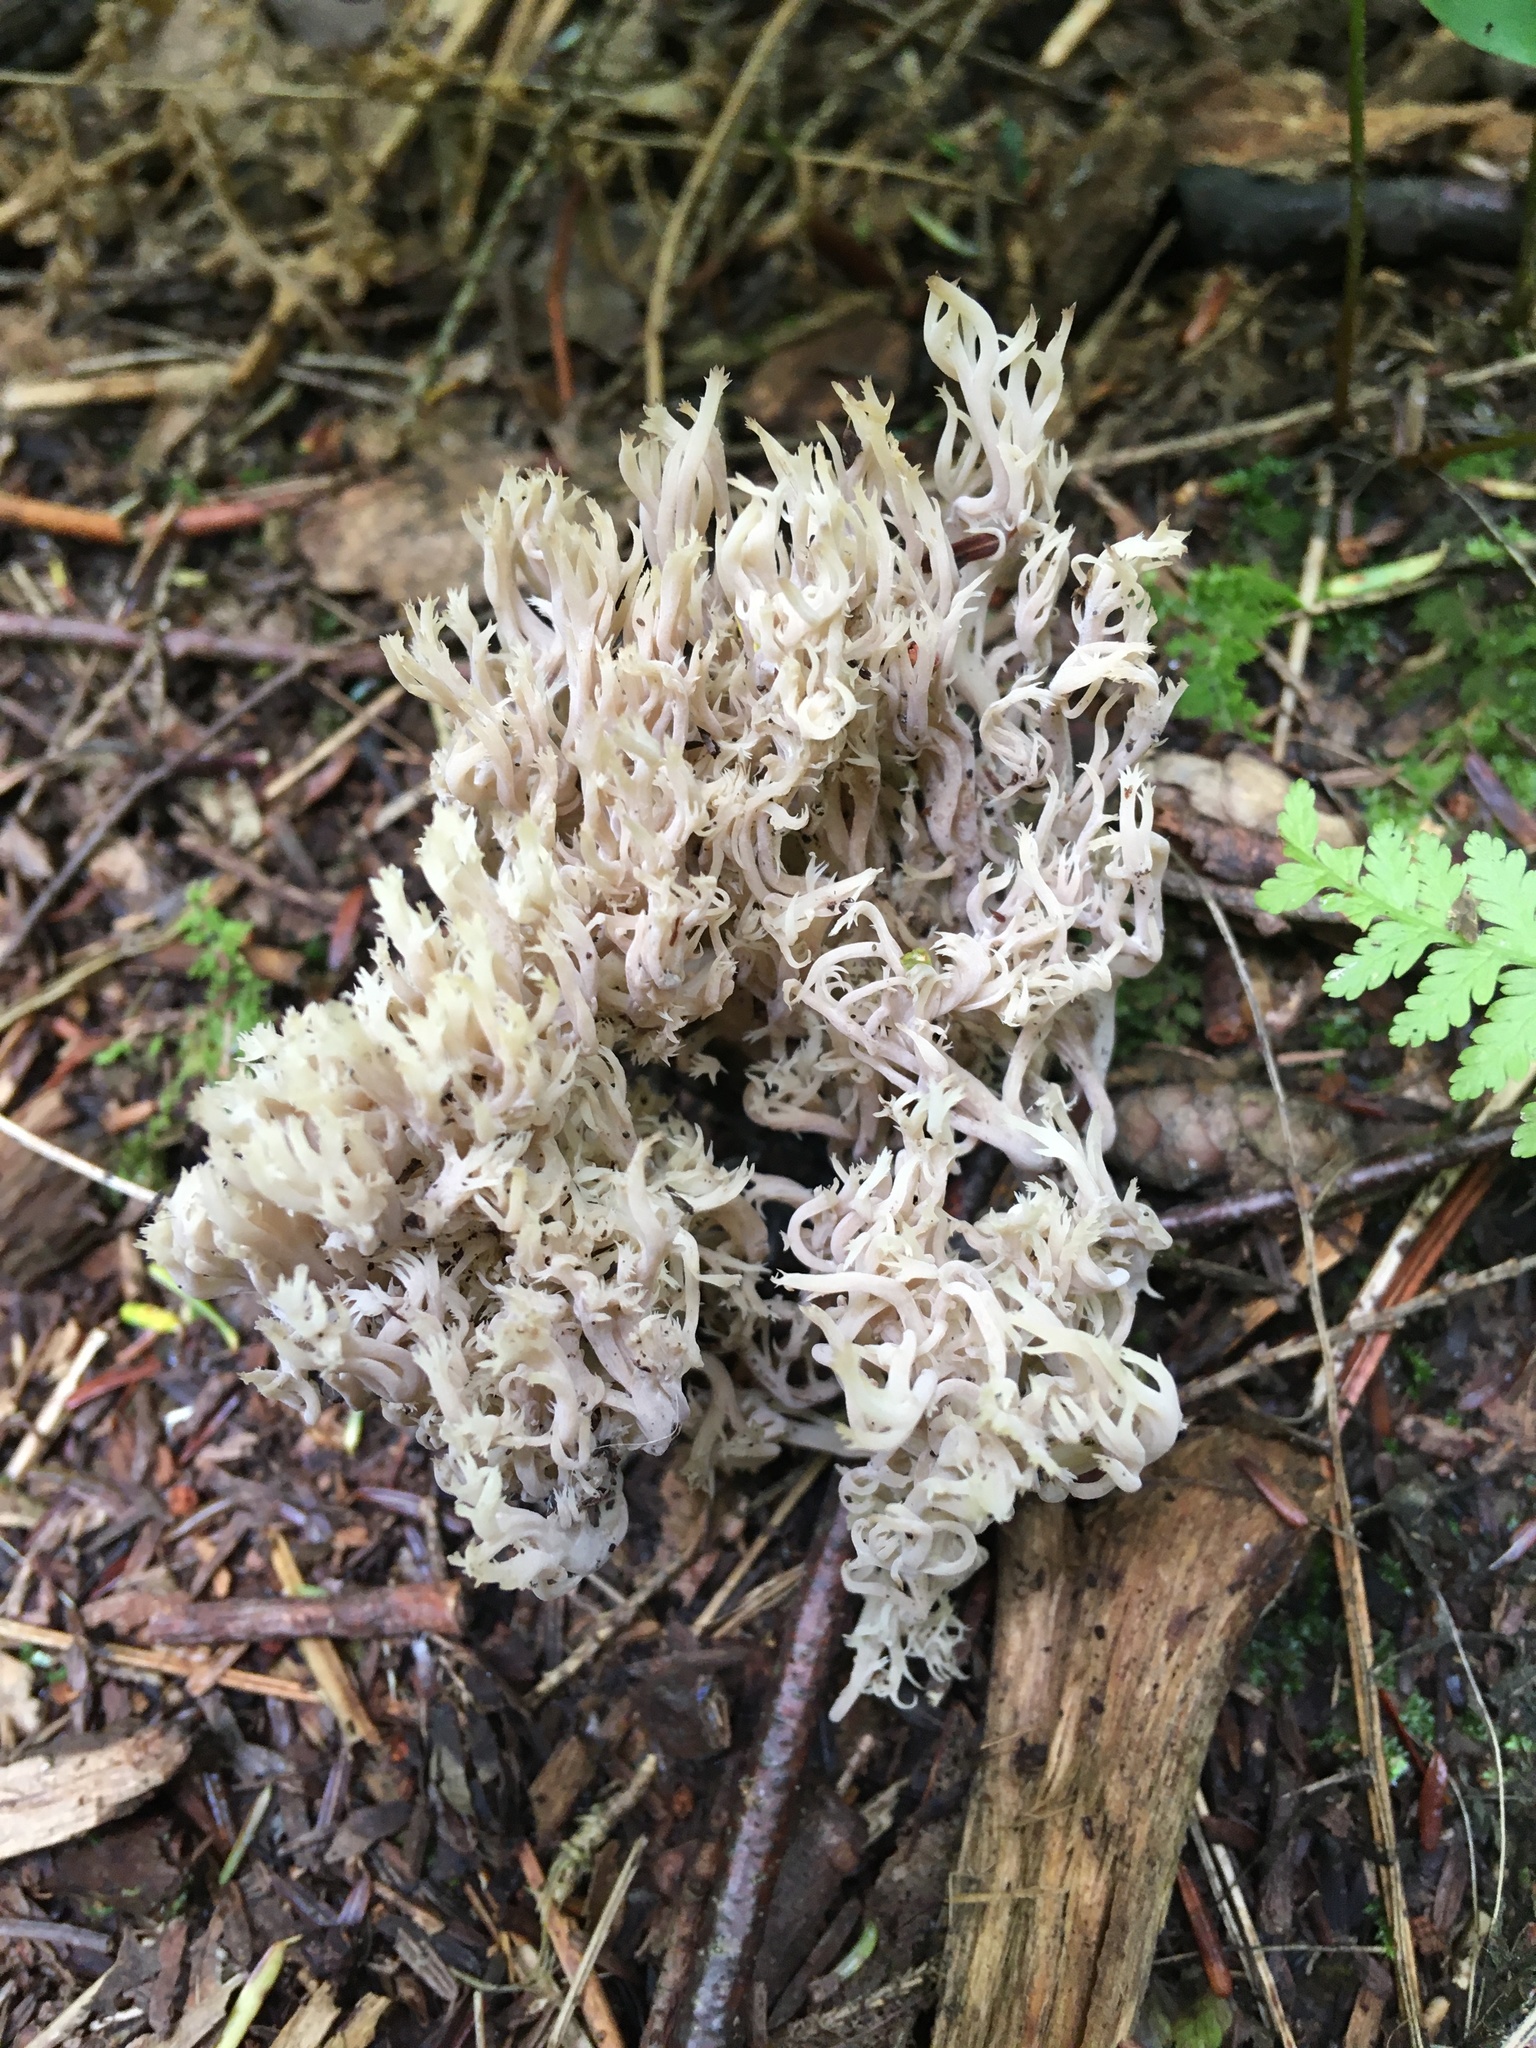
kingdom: Fungi
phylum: Basidiomycota
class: Agaricomycetes
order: Cantharellales
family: Hydnaceae
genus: Clavulina
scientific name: Clavulina coralloides
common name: Crested coral
